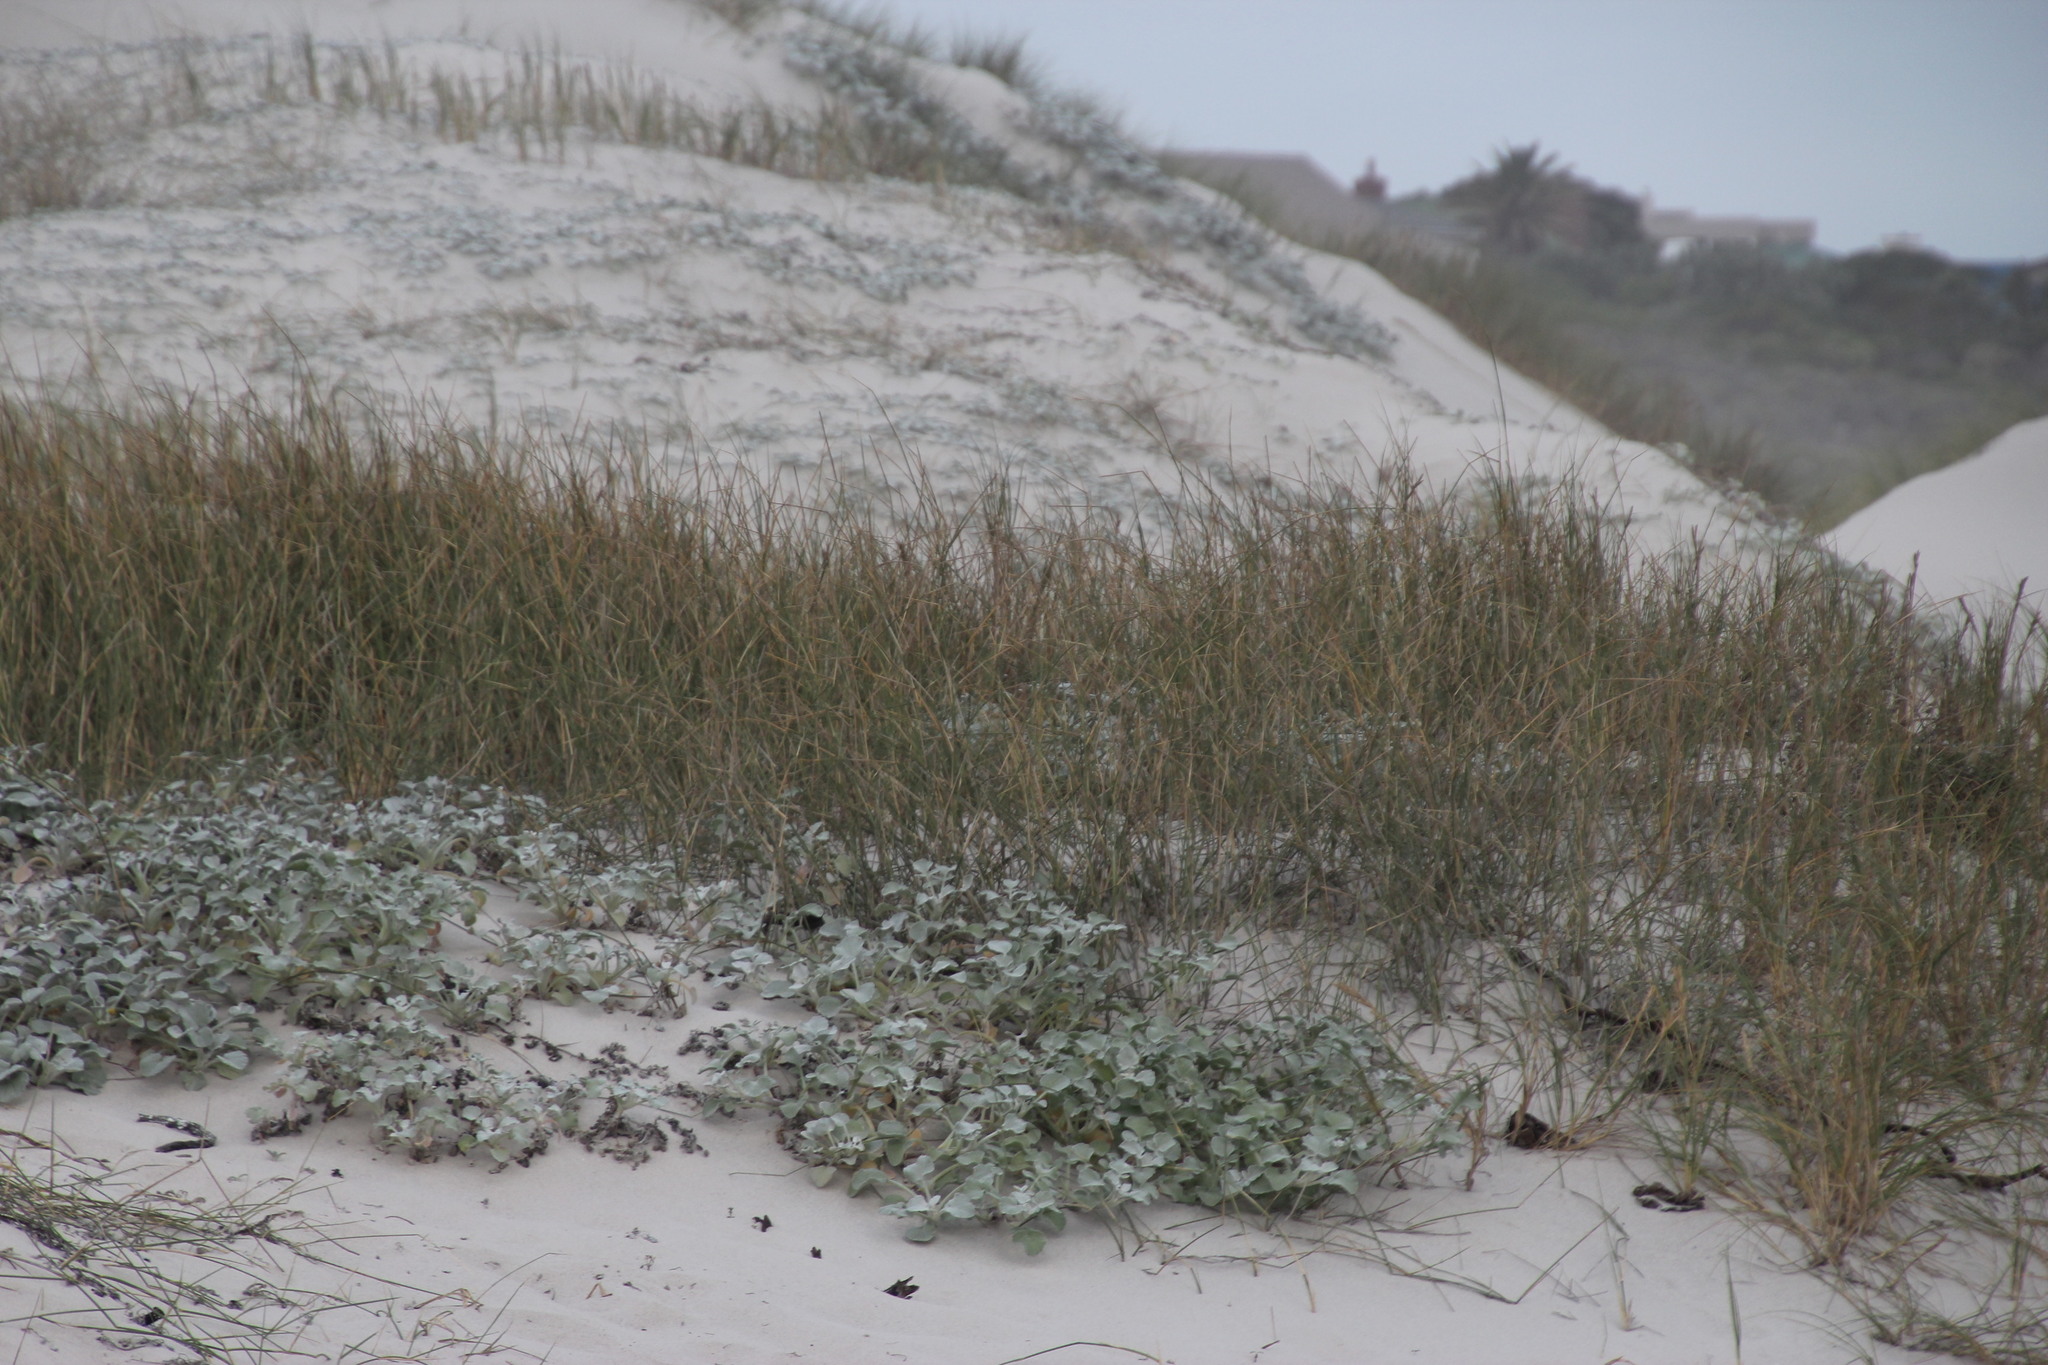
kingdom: Plantae
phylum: Tracheophyta
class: Liliopsida
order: Poales
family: Poaceae
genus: Thinopyrum
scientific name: Thinopyrum distichum
